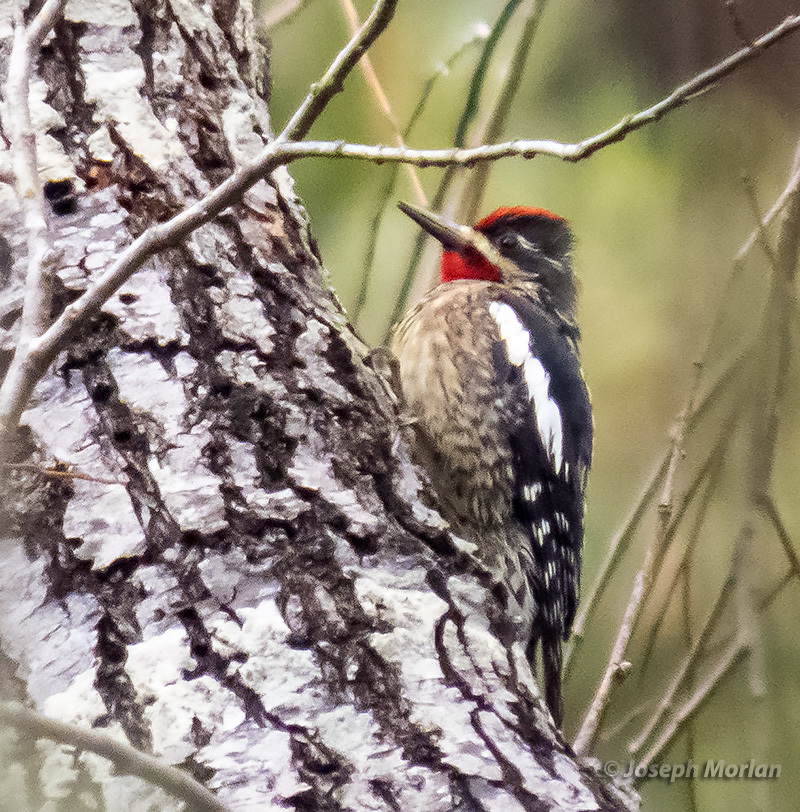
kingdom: Animalia
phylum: Chordata
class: Aves
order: Piciformes
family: Picidae
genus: Sphyrapicus
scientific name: Sphyrapicus nuchalis
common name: Red-naped sapsucker
